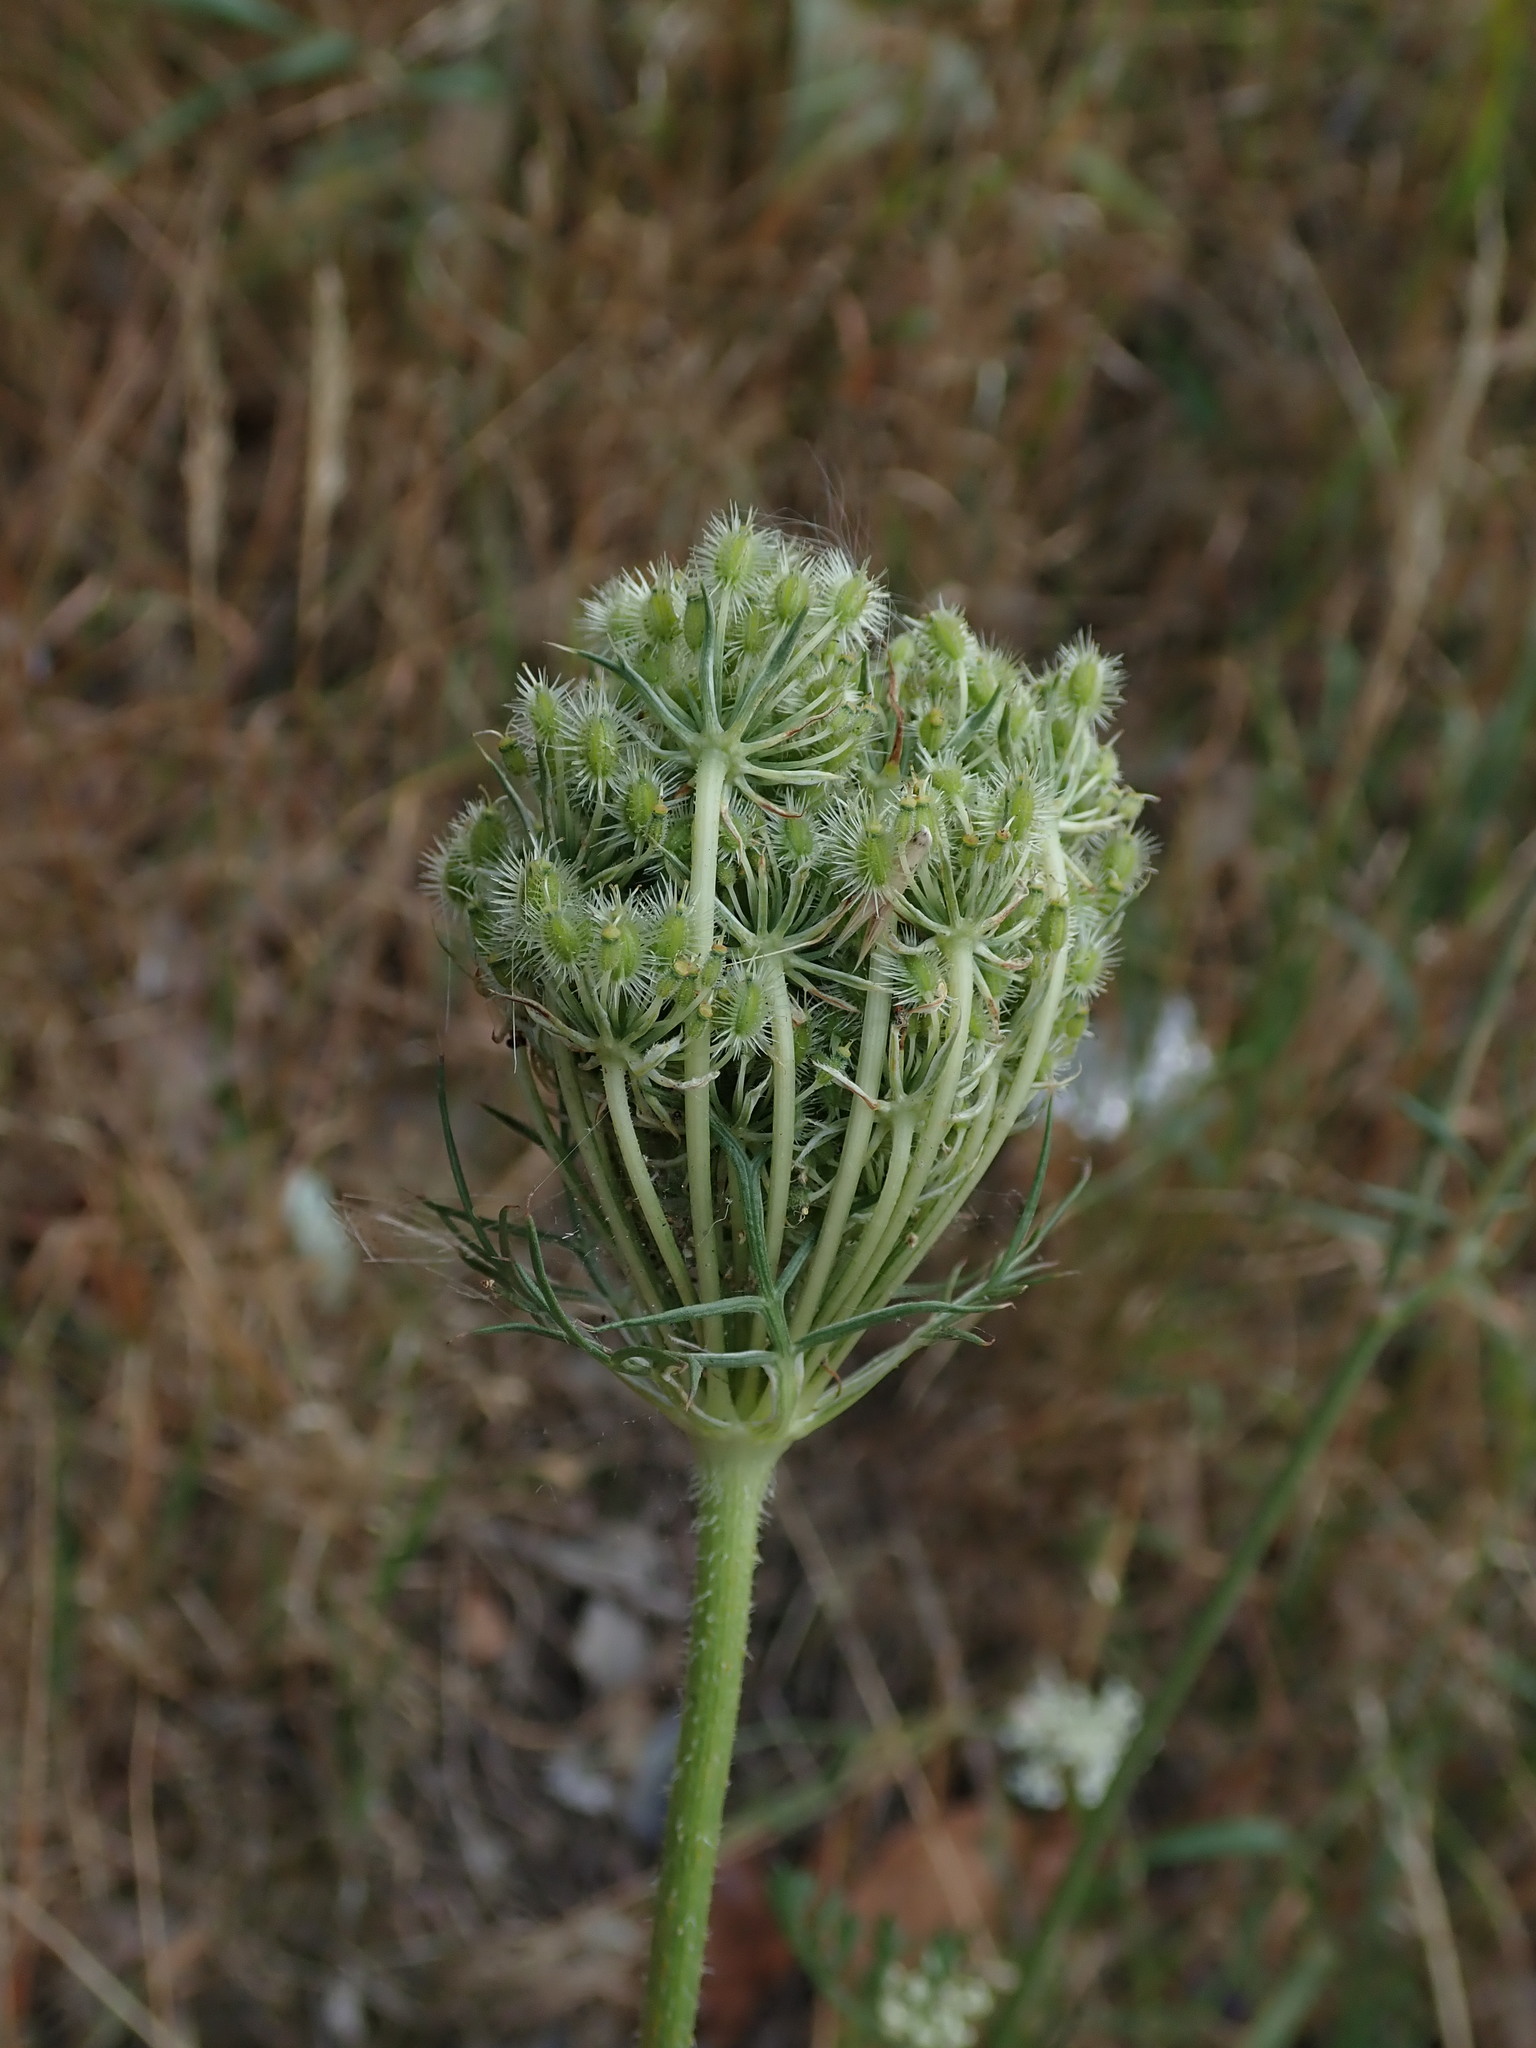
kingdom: Plantae
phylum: Tracheophyta
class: Magnoliopsida
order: Apiales
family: Apiaceae
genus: Daucus
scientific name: Daucus carota
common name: Wild carrot
